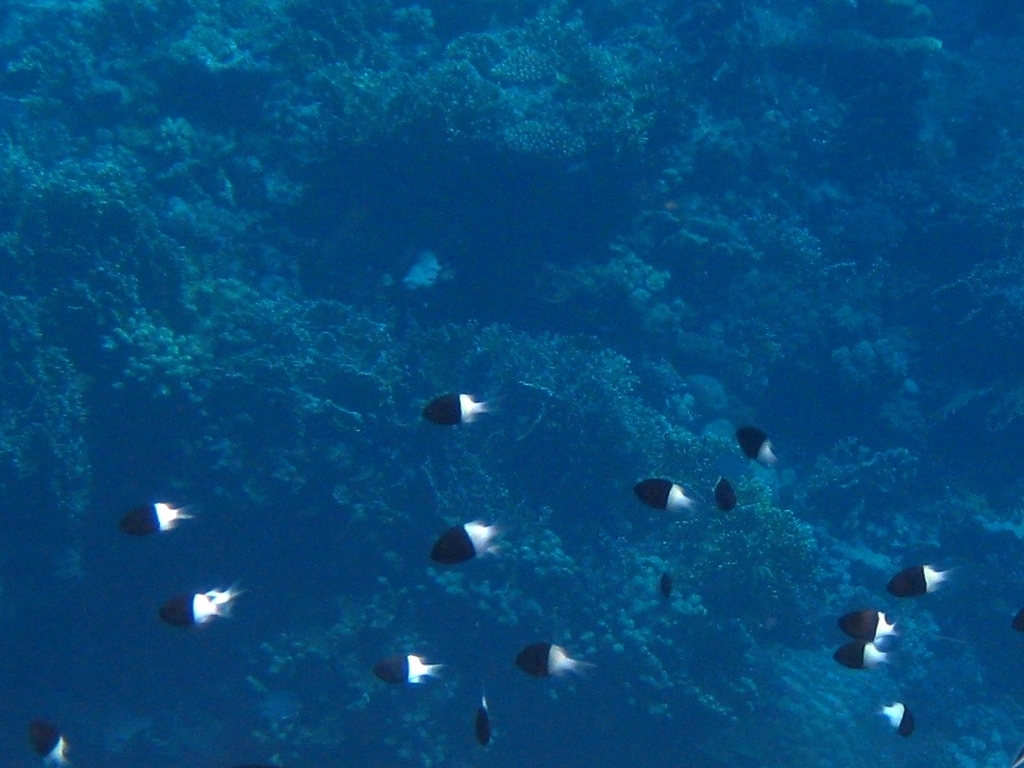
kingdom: Animalia
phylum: Chordata
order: Perciformes
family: Pomacentridae
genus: Chromis
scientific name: Chromis dimidiata
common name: Half-and-half chromis
